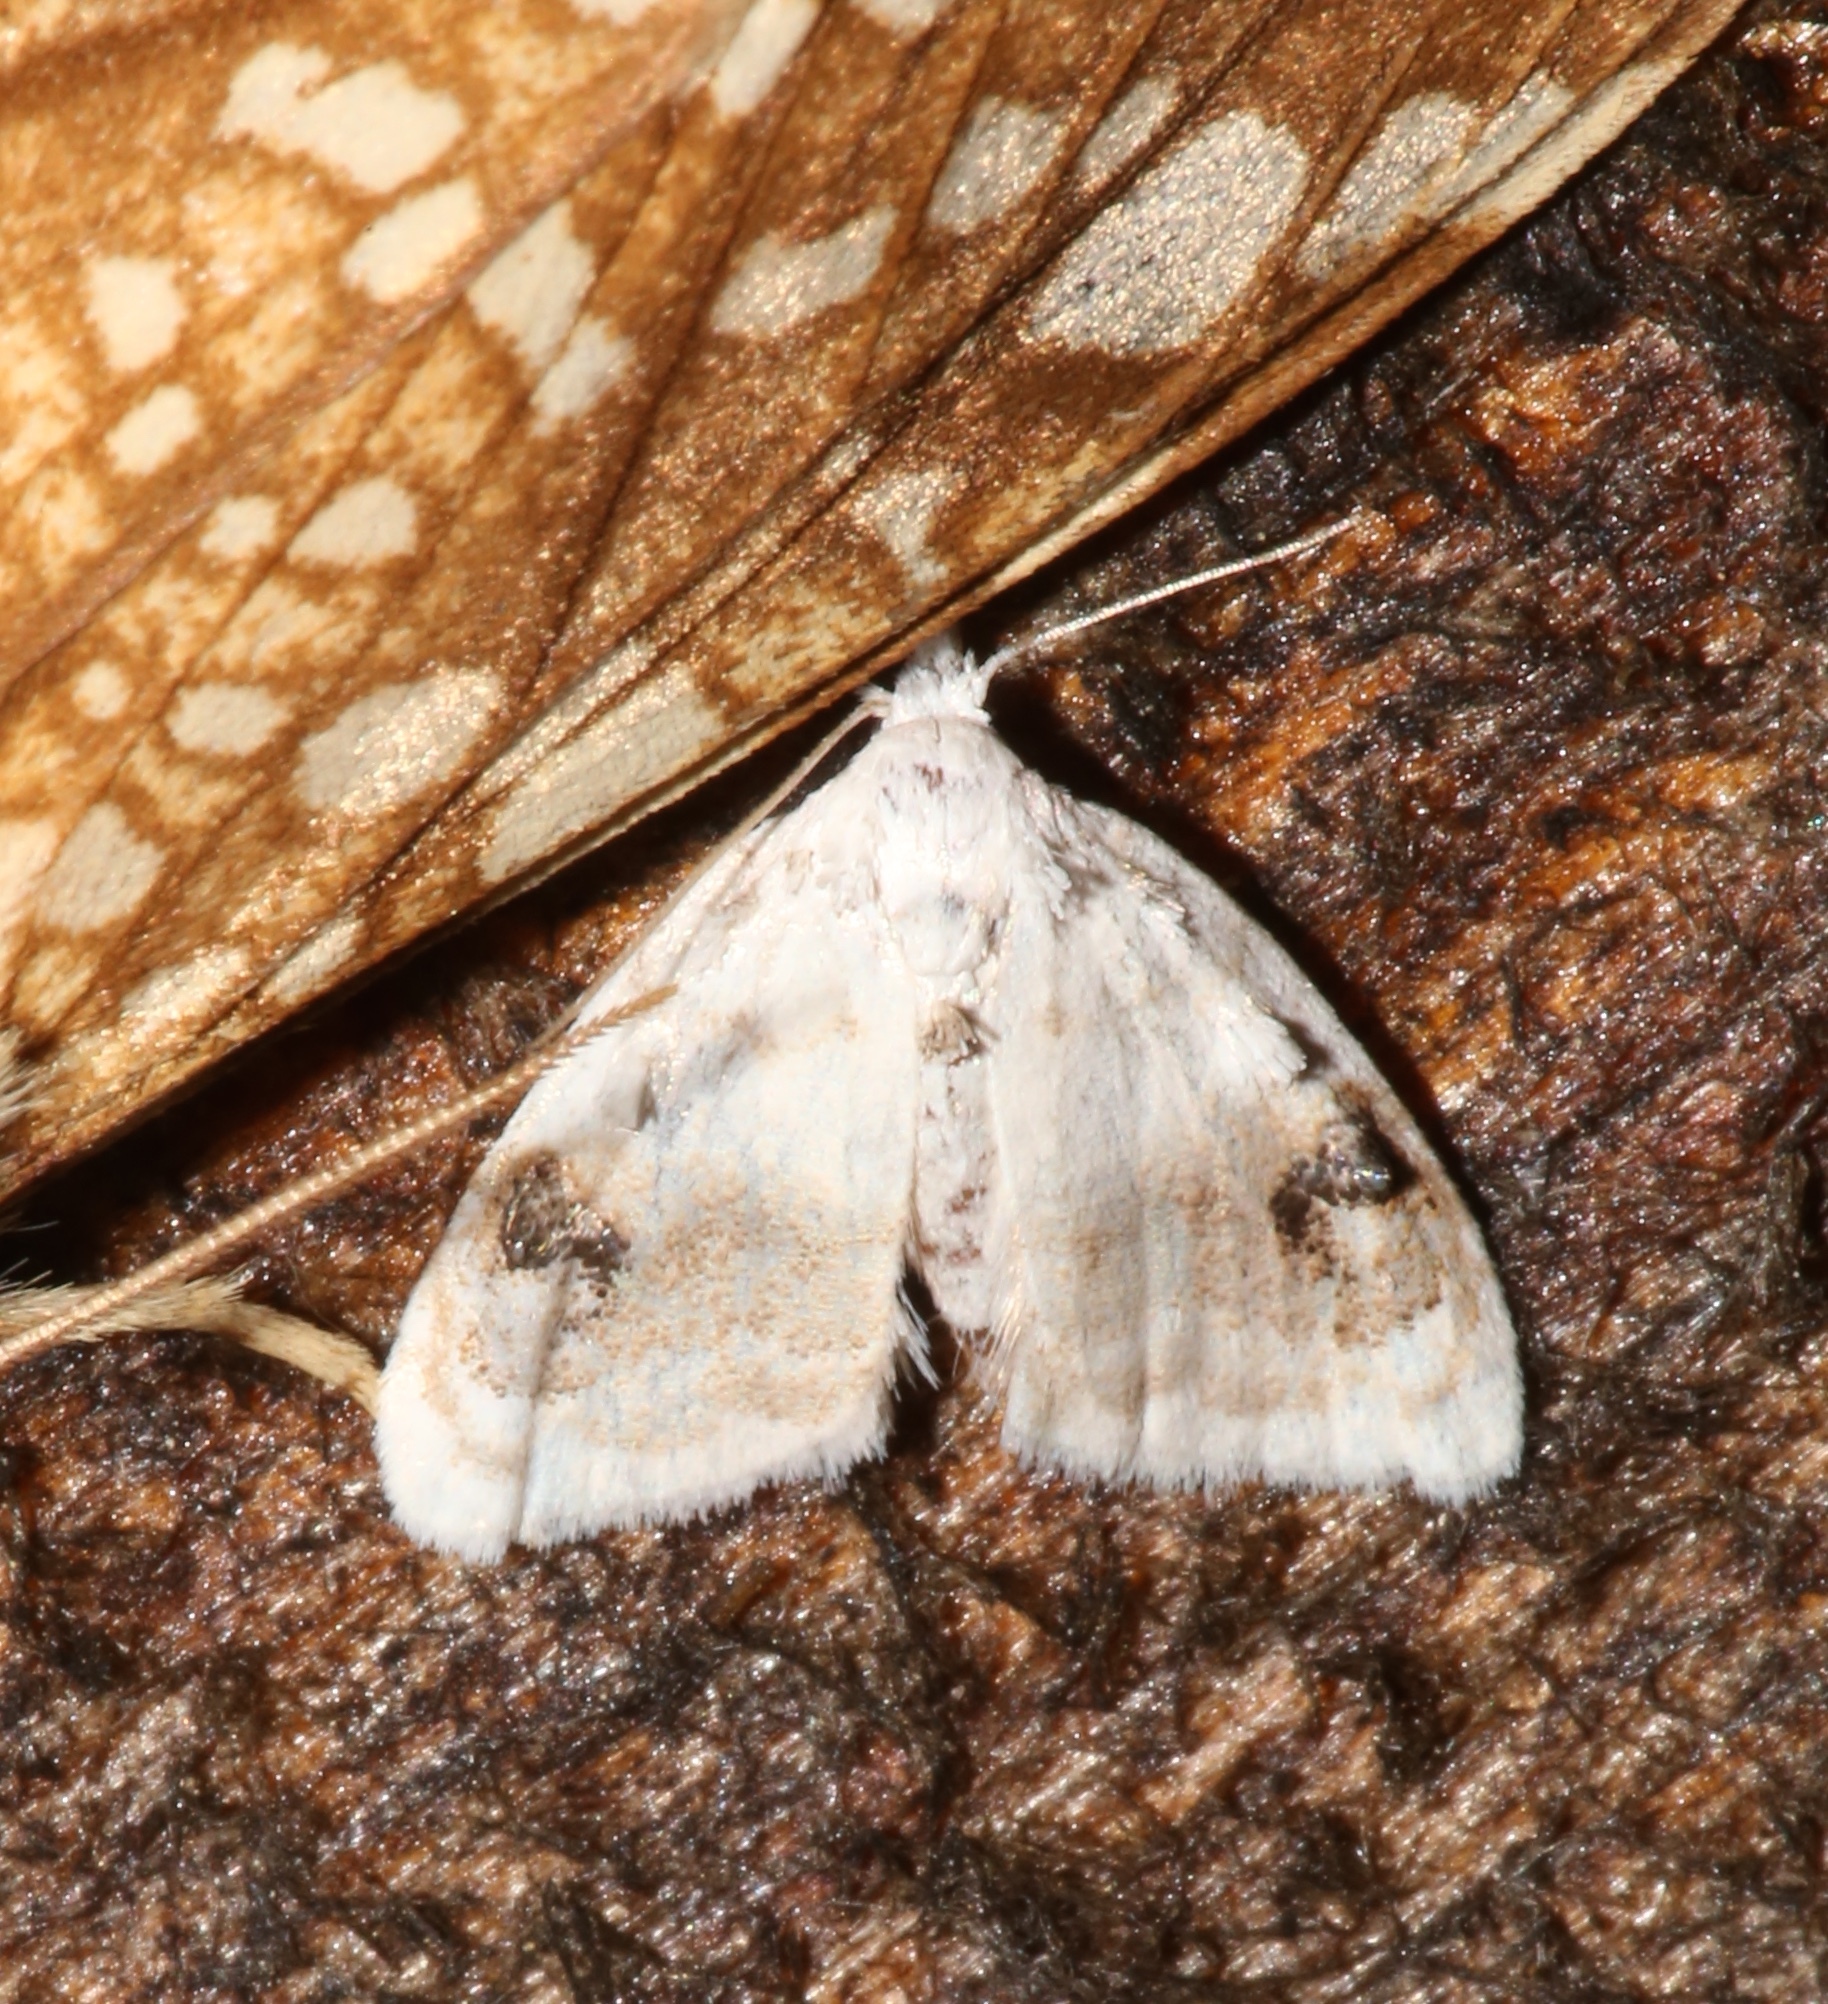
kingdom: Animalia
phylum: Arthropoda
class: Insecta
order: Lepidoptera
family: Nolidae
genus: Nola
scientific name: Nola cilicoides
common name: Blurry-patched nola moth
